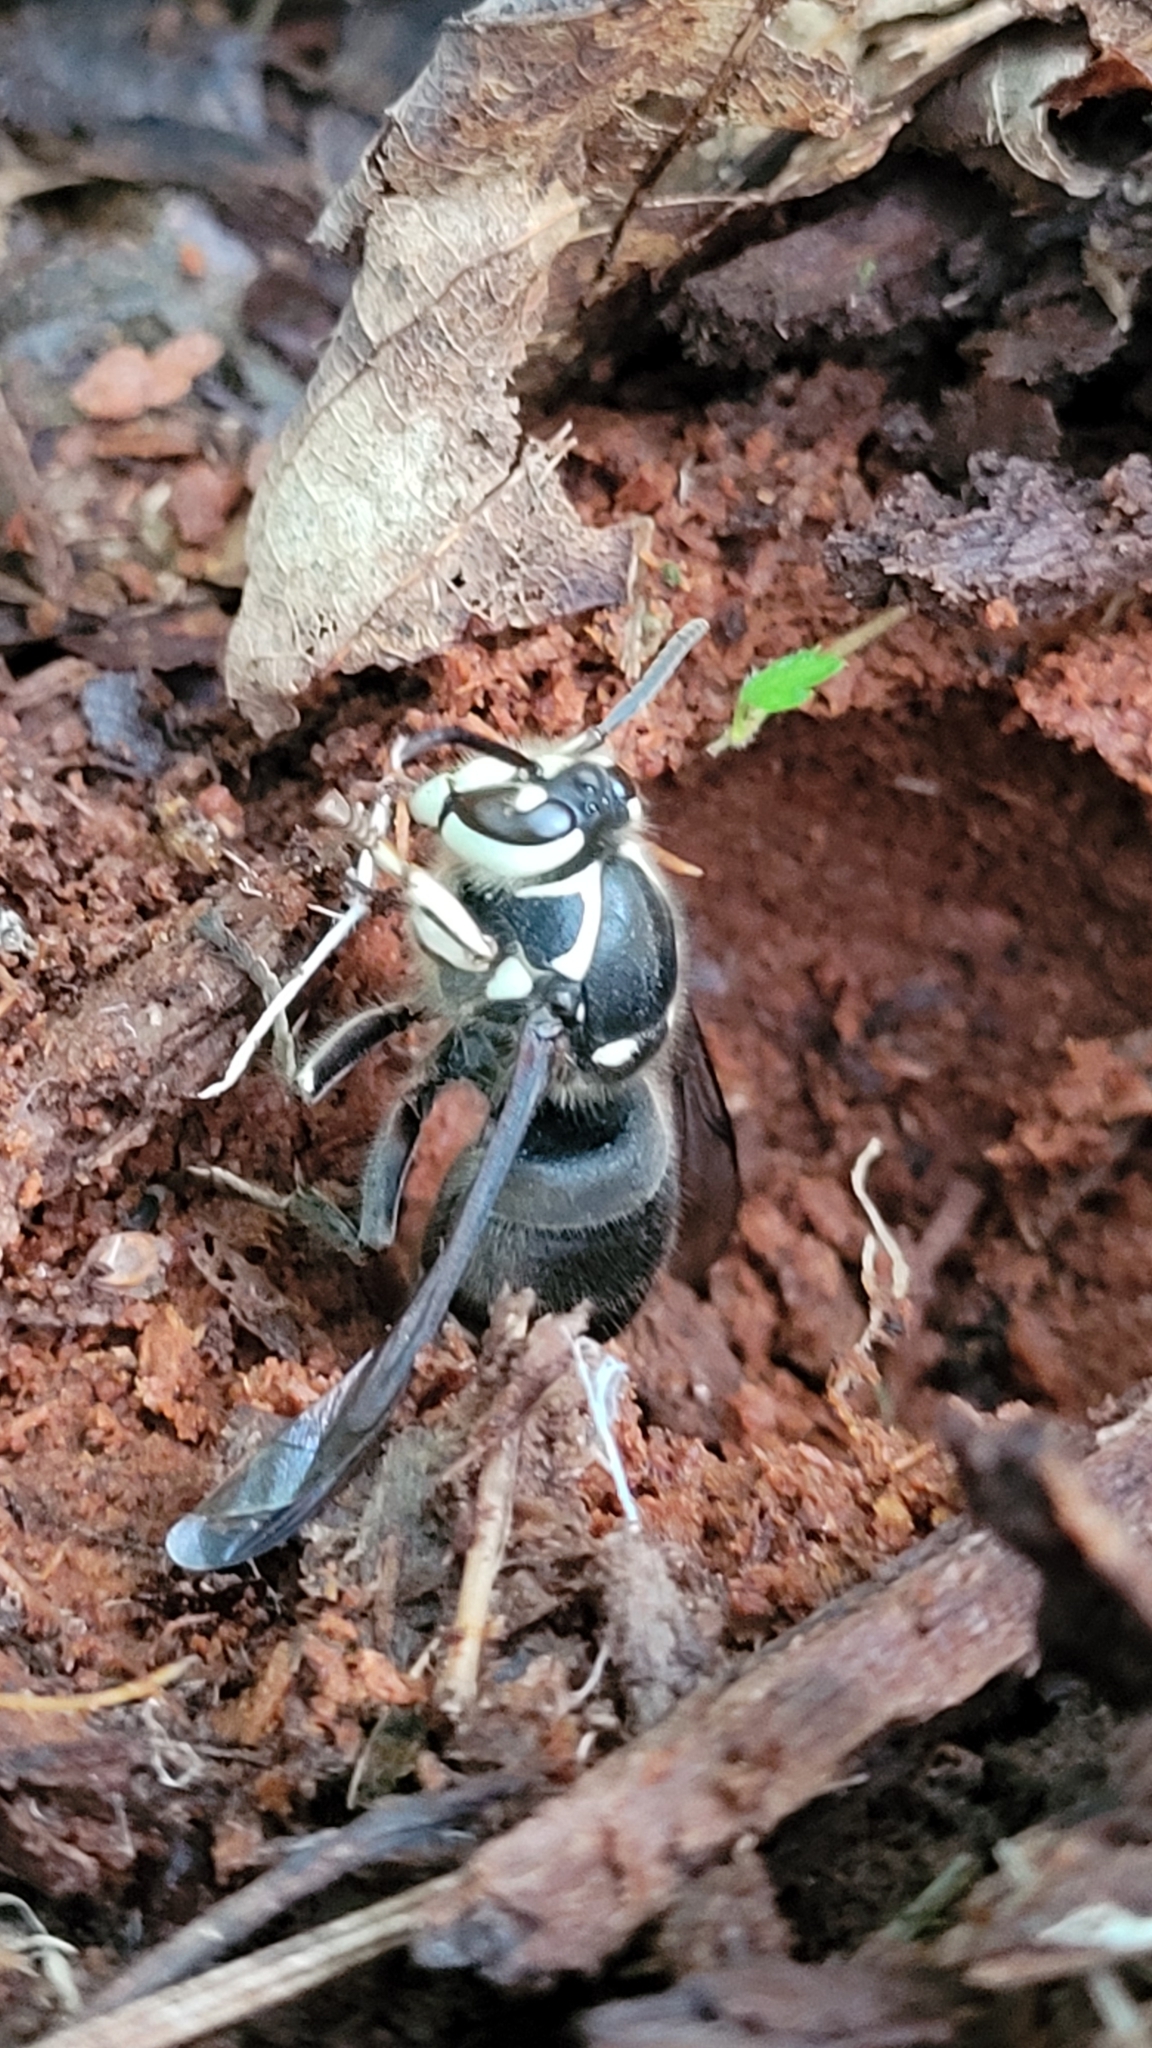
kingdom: Animalia
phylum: Arthropoda
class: Insecta
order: Hymenoptera
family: Vespidae
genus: Dolichovespula
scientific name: Dolichovespula maculata
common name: Bald-faced hornet
